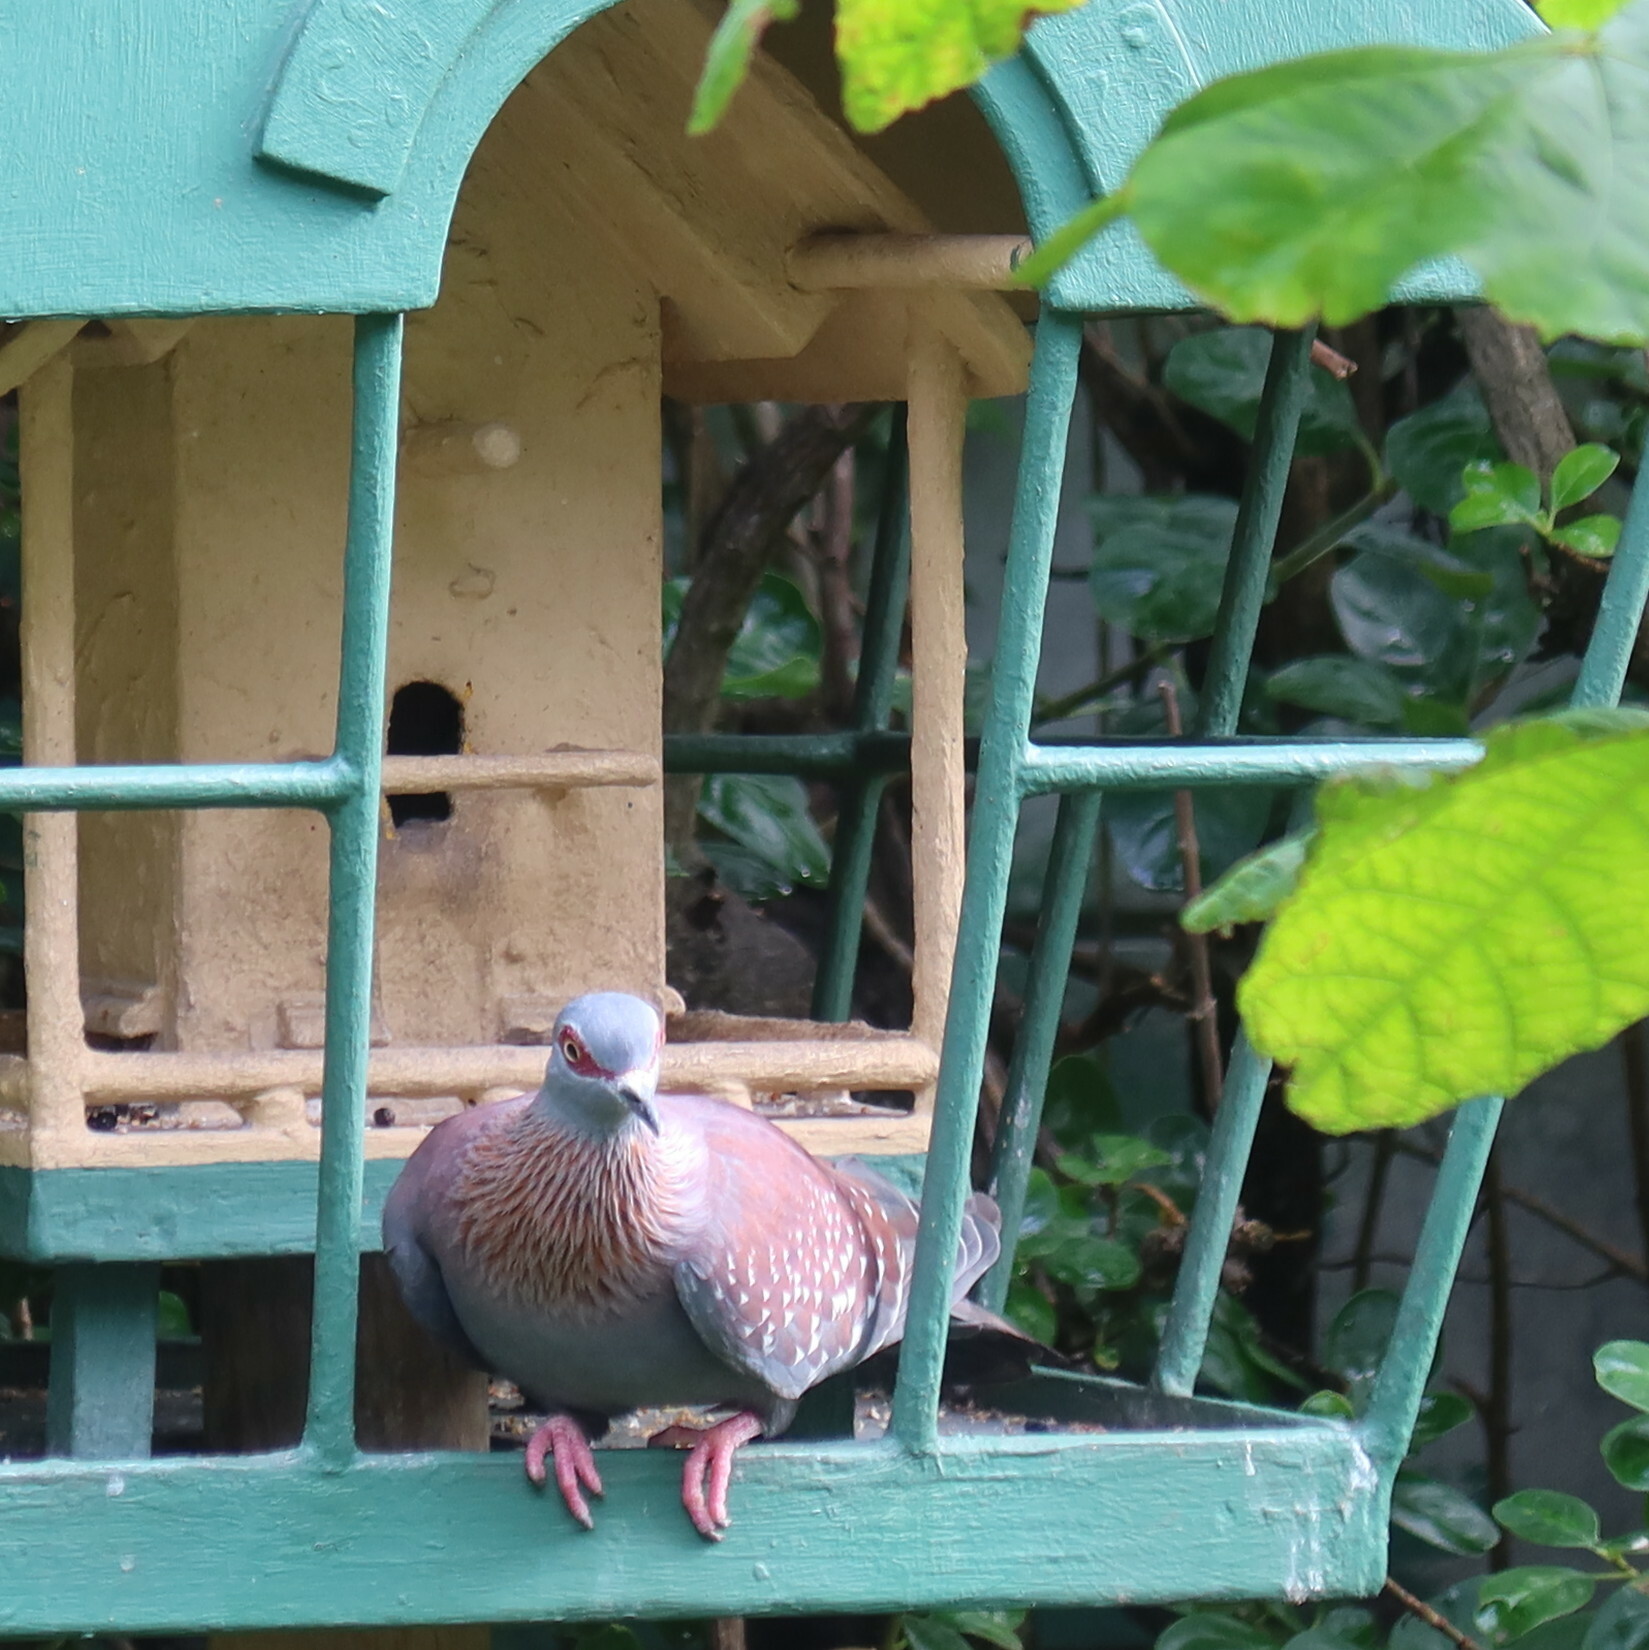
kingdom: Animalia
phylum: Chordata
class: Aves
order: Columbiformes
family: Columbidae
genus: Columba
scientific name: Columba guinea
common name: Speckled pigeon
